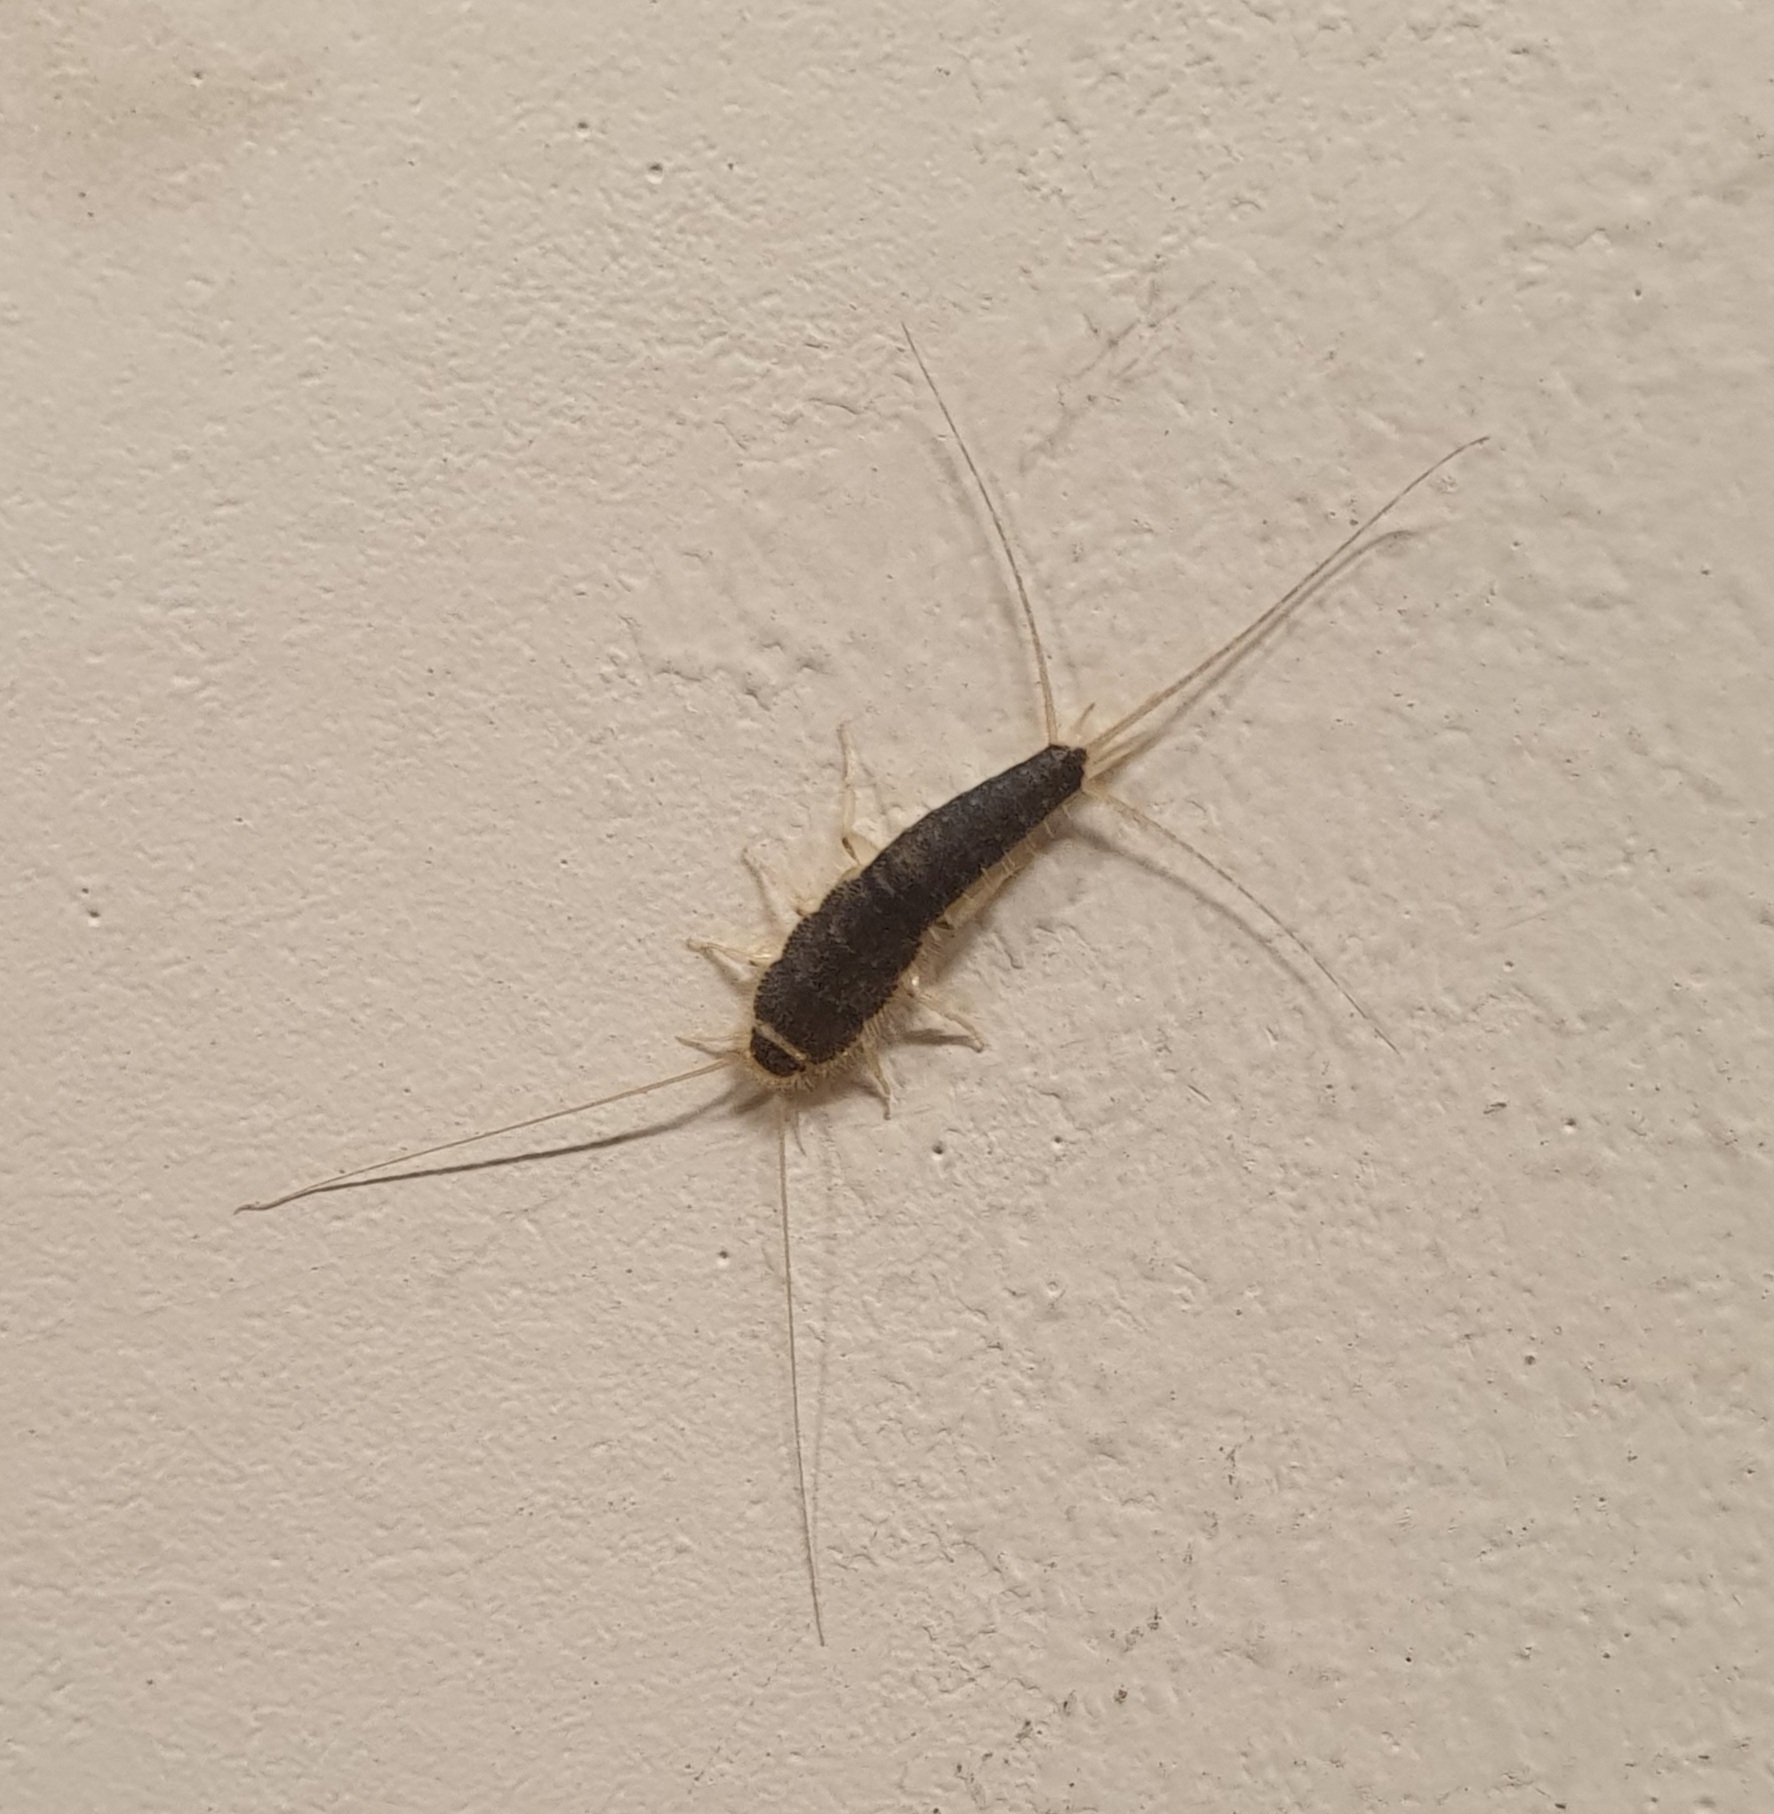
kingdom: Animalia
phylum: Arthropoda
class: Insecta
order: Zygentoma
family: Lepismatidae
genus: Ctenolepisma
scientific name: Ctenolepisma longicaudatum
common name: Silverfish
